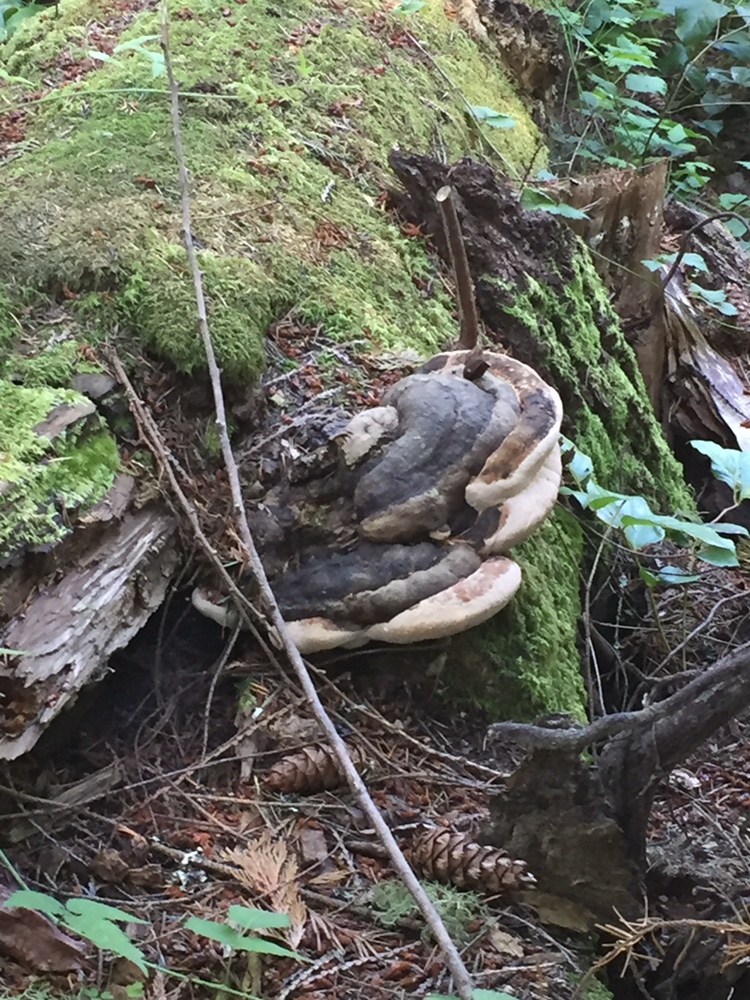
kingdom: Fungi
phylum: Basidiomycota
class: Agaricomycetes
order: Polyporales
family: Fomitopsidaceae
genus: Fomitopsis
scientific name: Fomitopsis ochracea
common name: American brown fomitopsis
